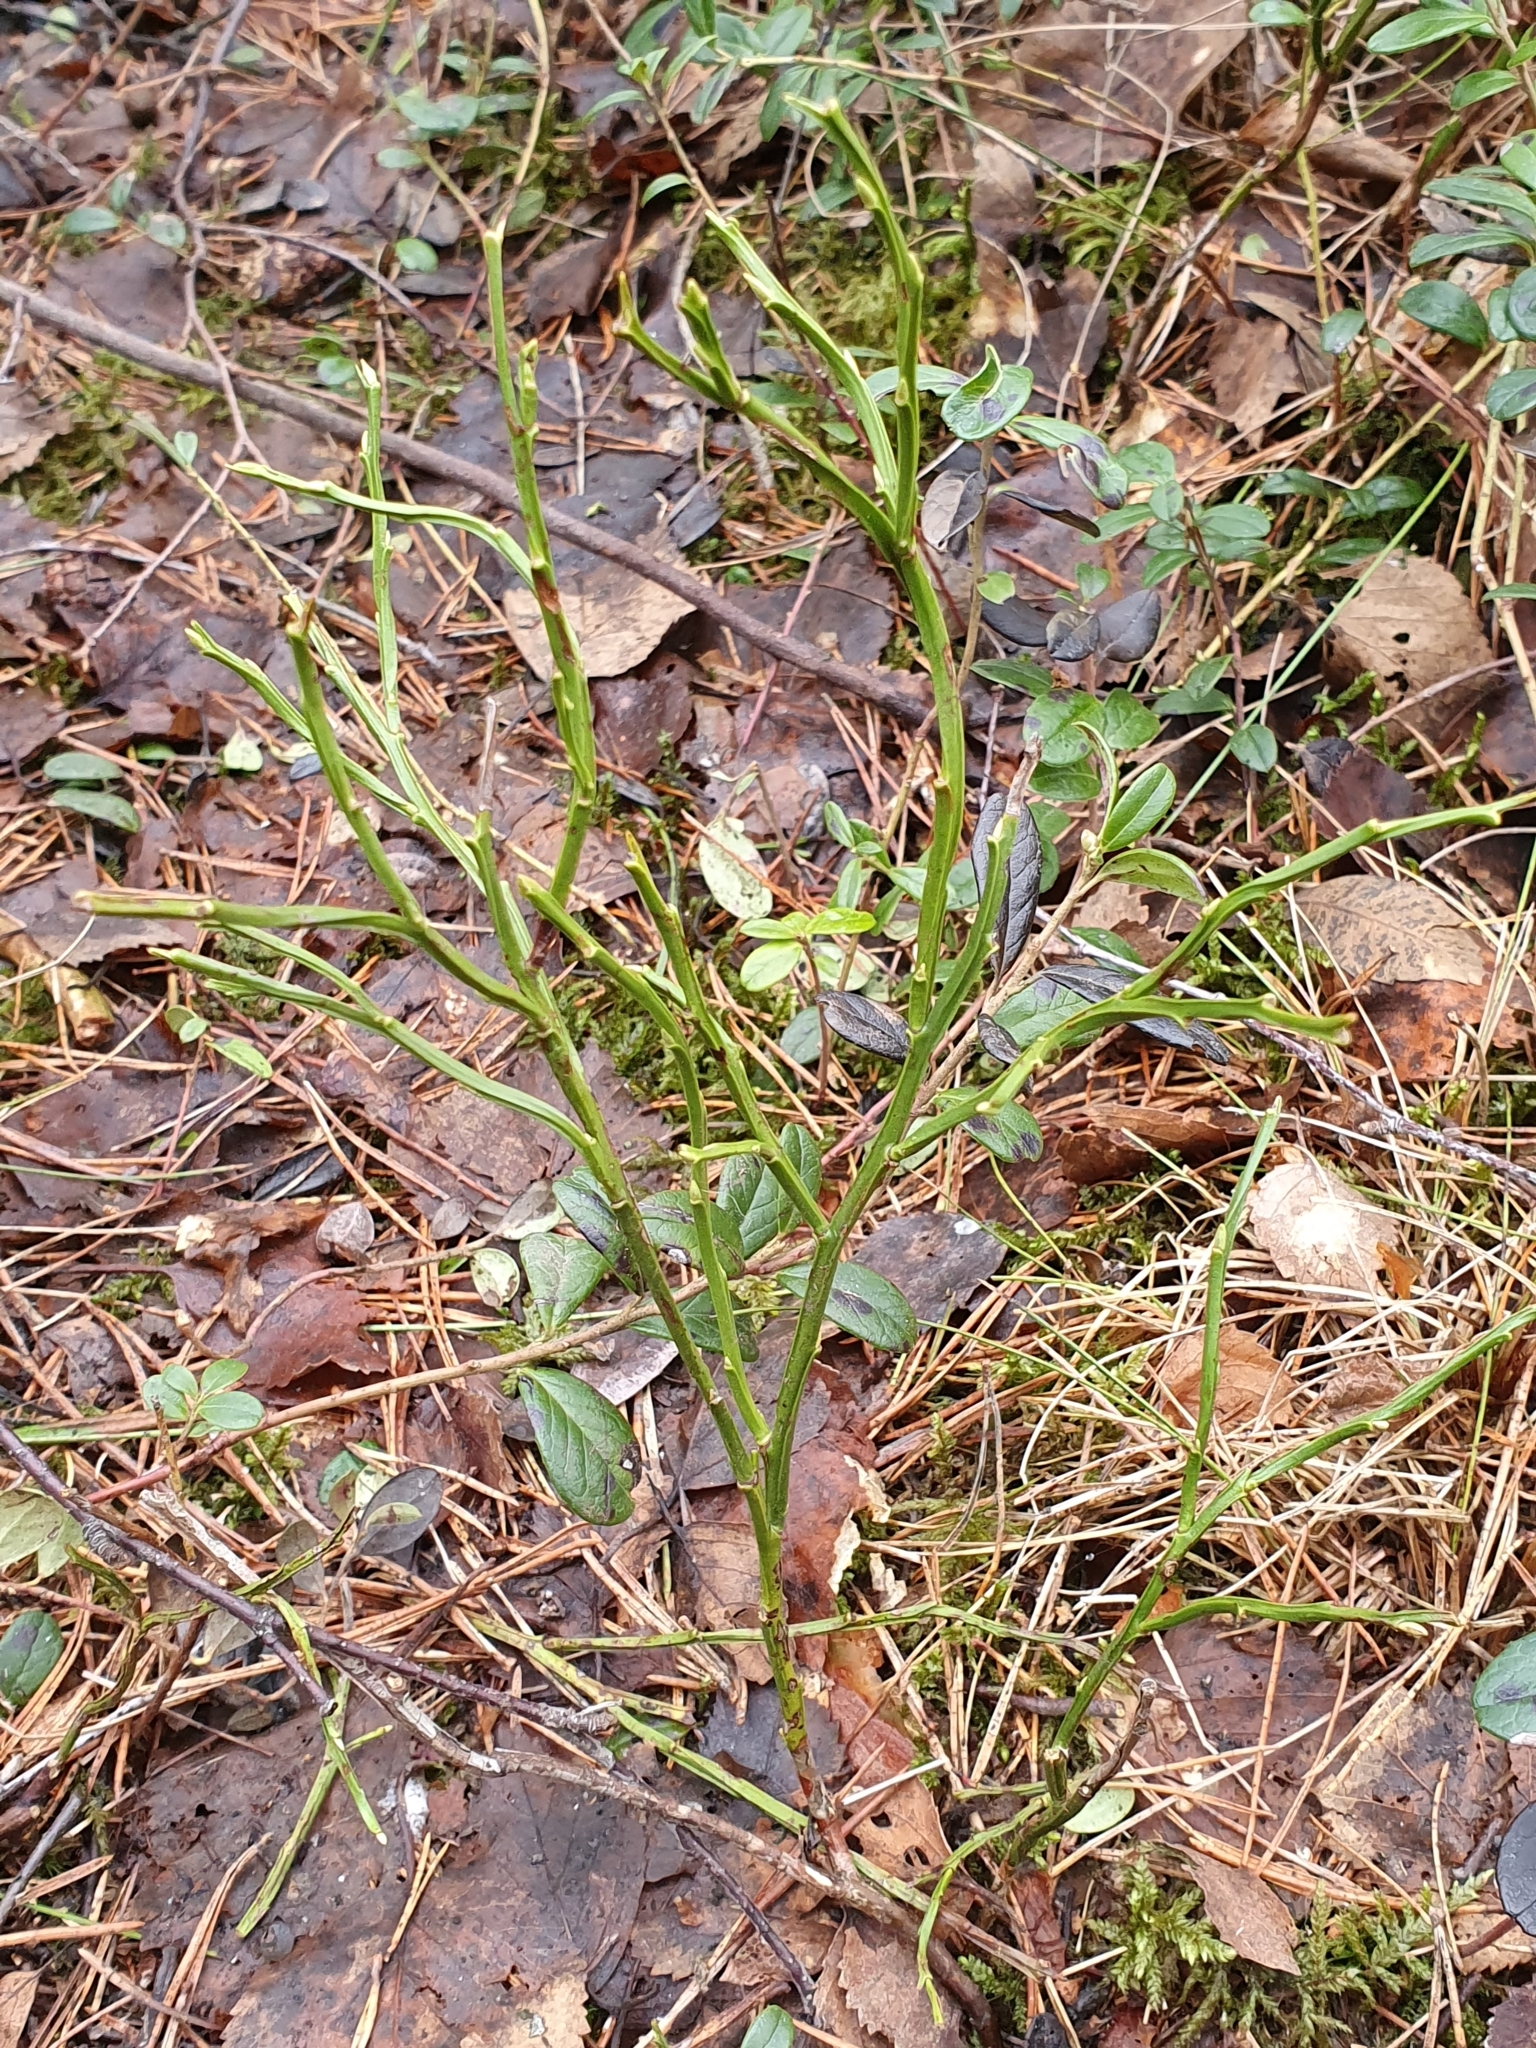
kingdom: Plantae
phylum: Tracheophyta
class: Magnoliopsida
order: Ericales
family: Ericaceae
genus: Vaccinium
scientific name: Vaccinium myrtillus
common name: Bilberry
